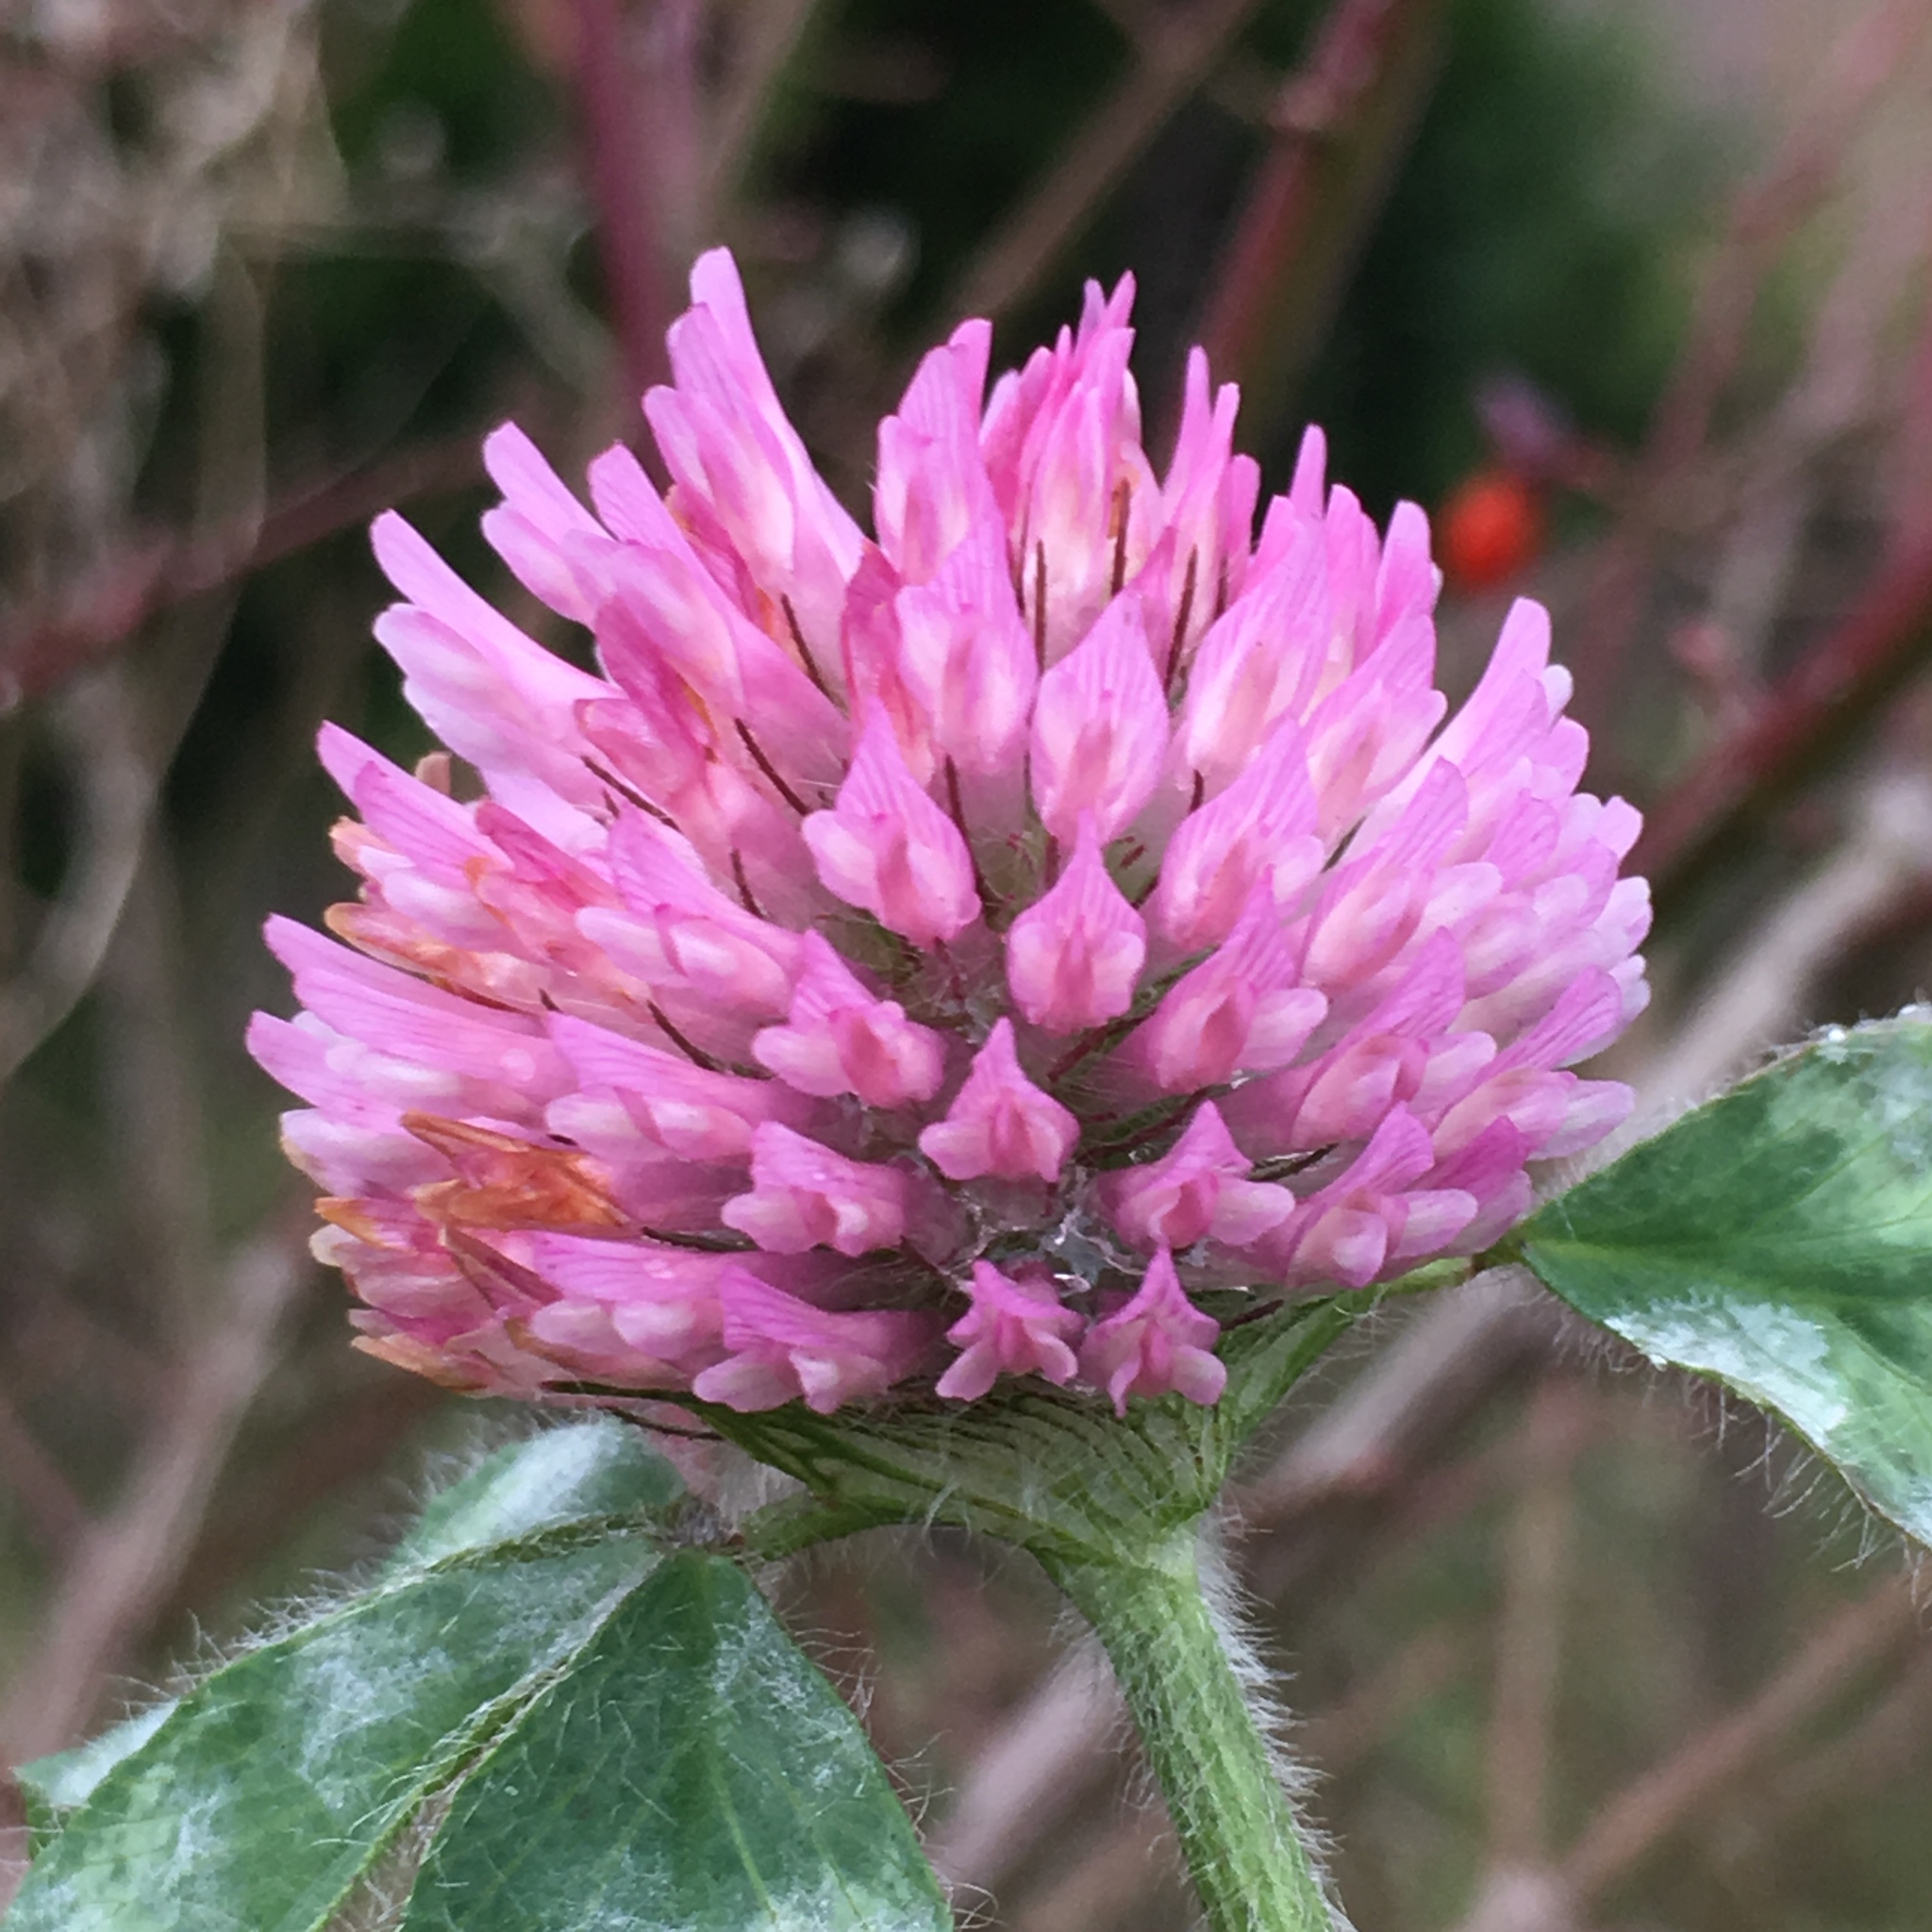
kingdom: Plantae
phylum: Tracheophyta
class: Magnoliopsida
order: Fabales
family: Fabaceae
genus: Trifolium
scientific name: Trifolium pratense
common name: Red clover
